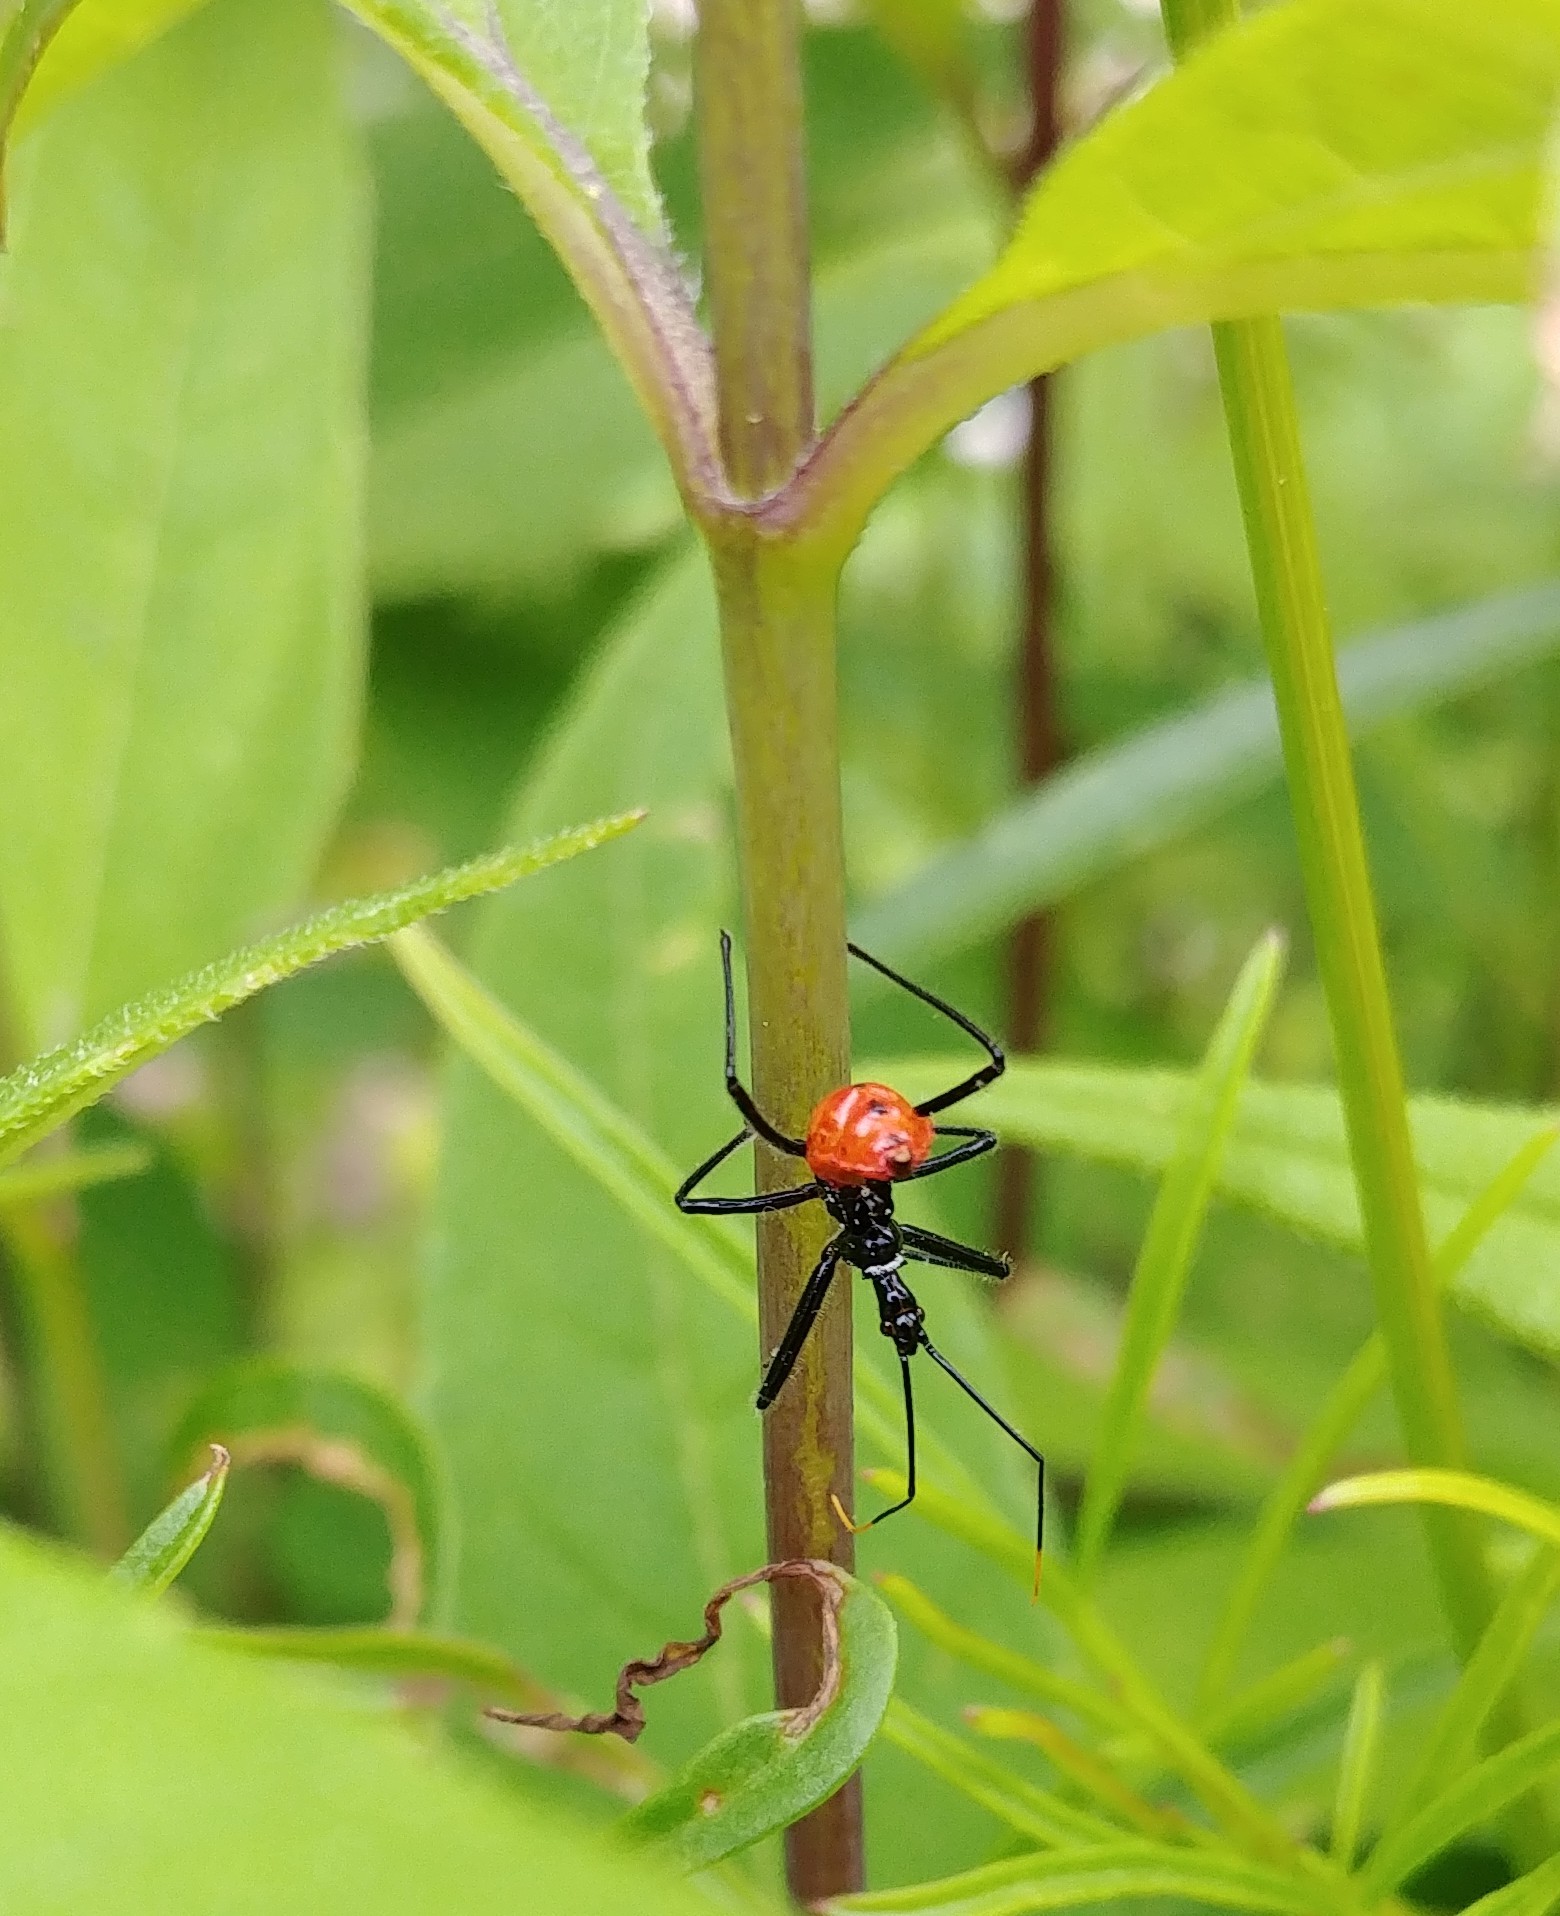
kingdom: Animalia
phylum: Arthropoda
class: Insecta
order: Hemiptera
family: Reduviidae
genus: Arilus
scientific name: Arilus cristatus
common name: North american wheel bug
